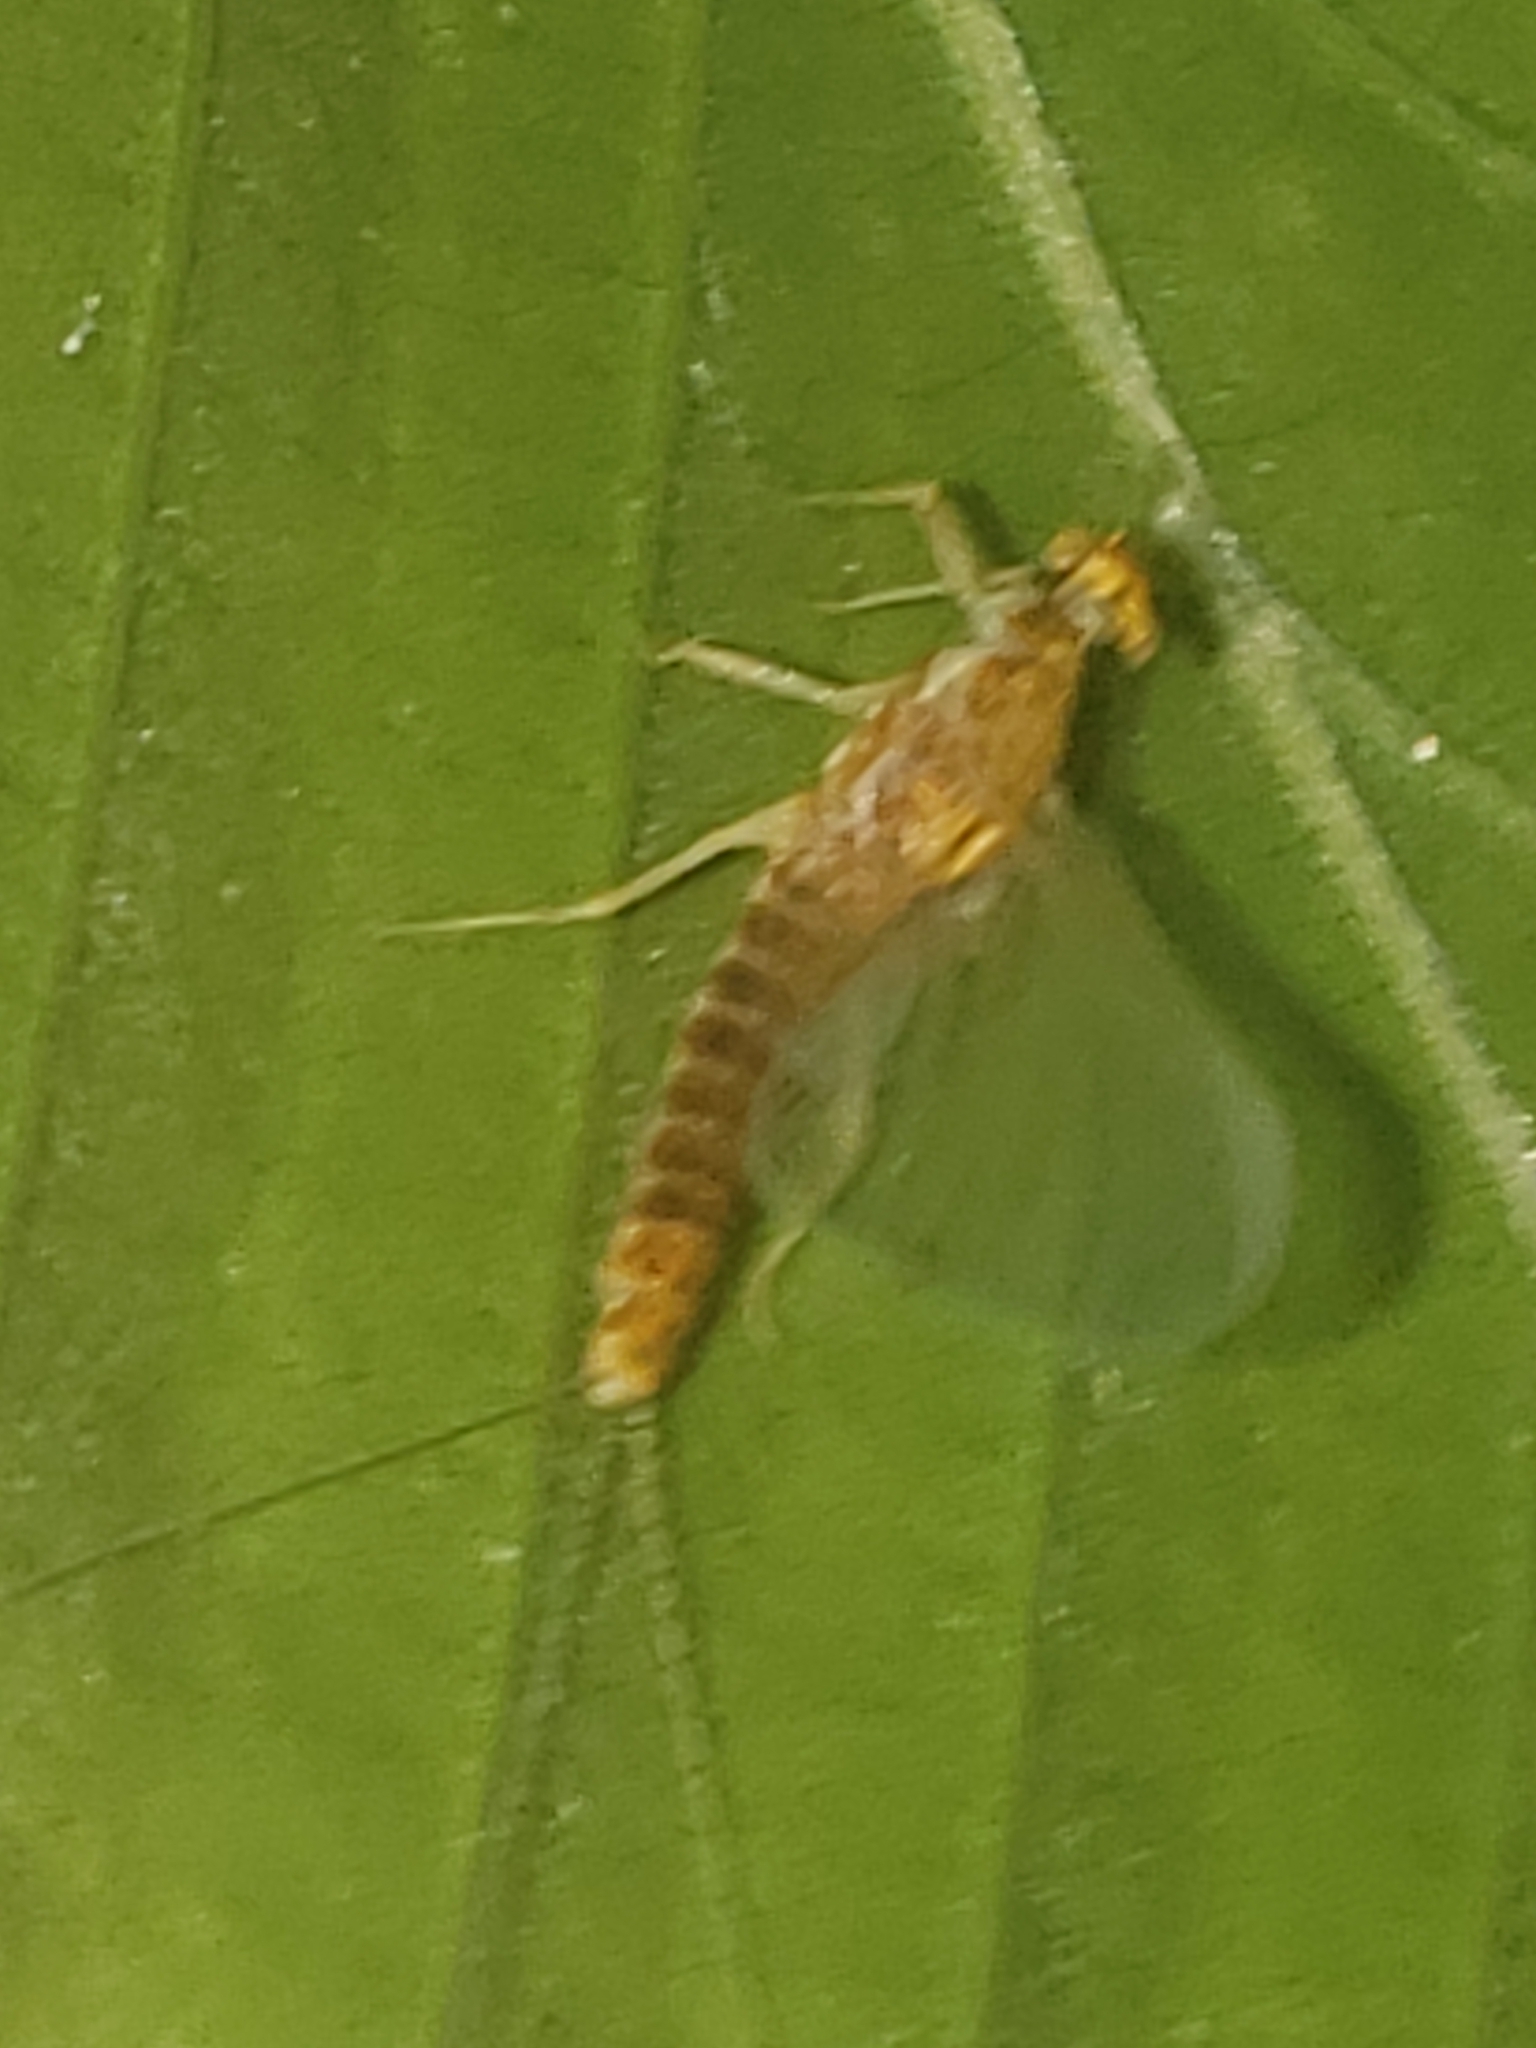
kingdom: Animalia
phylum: Arthropoda
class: Insecta
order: Ephemeroptera
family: Ephemerellidae
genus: Ephemerella
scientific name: Ephemerella invaria
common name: Sulphur dun
